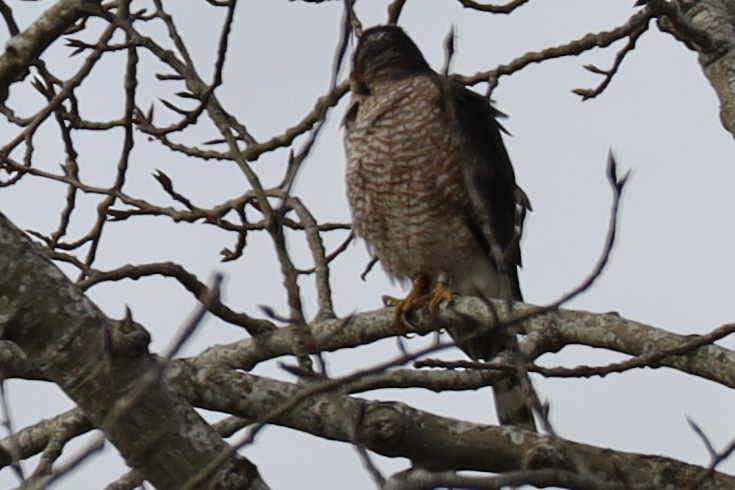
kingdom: Animalia
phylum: Chordata
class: Aves
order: Accipitriformes
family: Accipitridae
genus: Accipiter
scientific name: Accipiter cooperii
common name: Cooper's hawk
